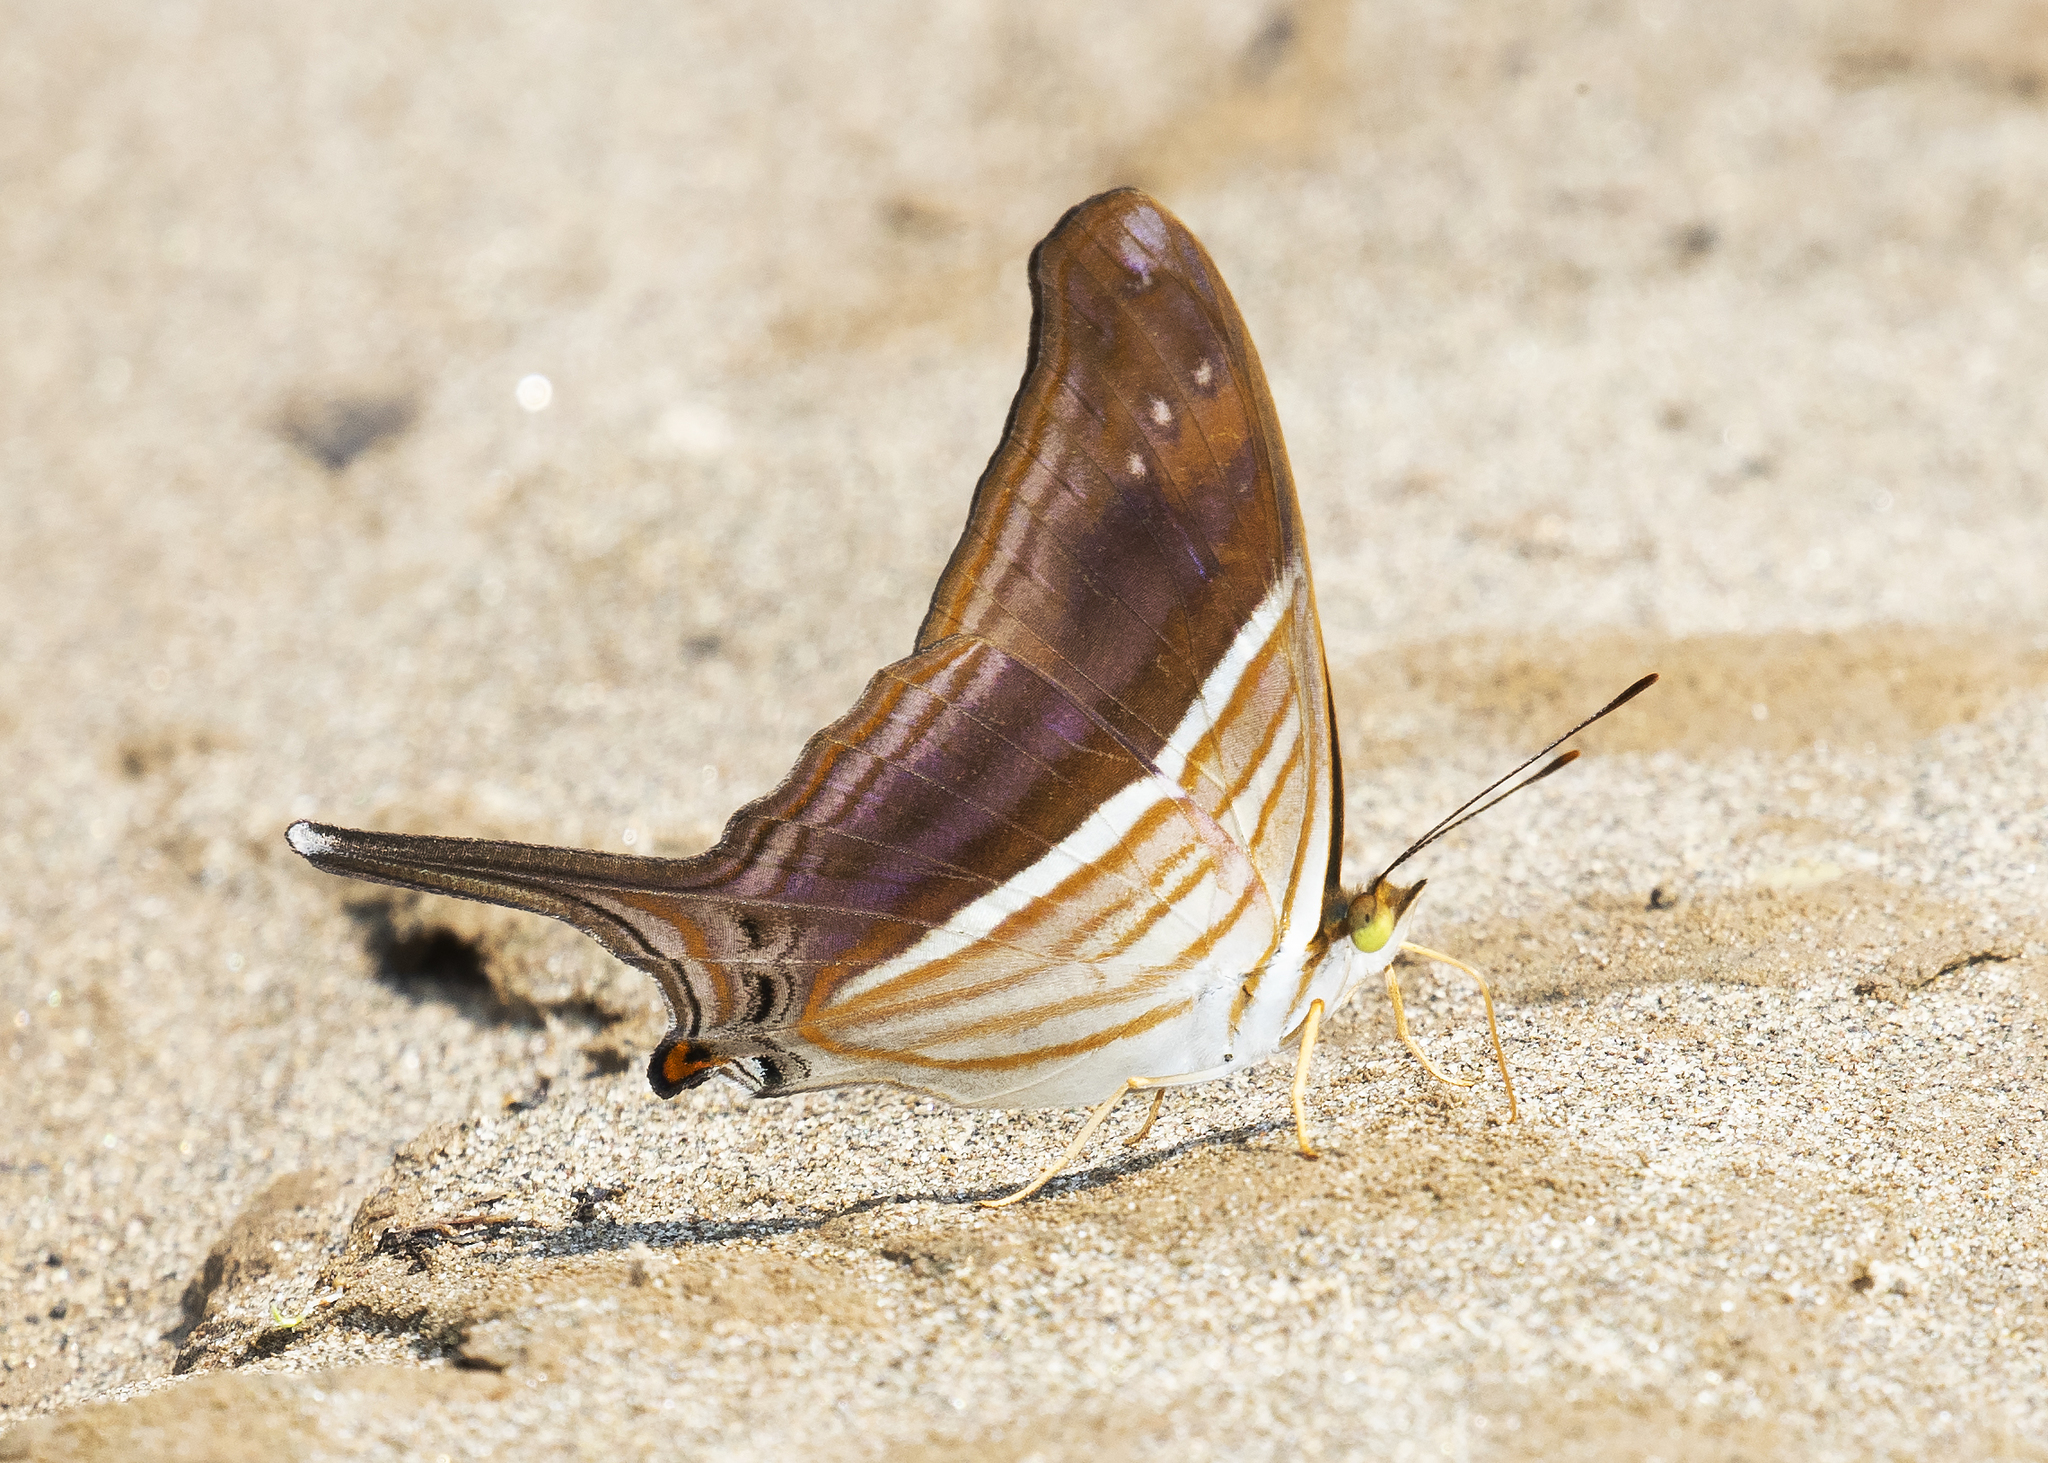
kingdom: Animalia
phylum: Arthropoda
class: Insecta
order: Lepidoptera
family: Nymphalidae
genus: Marpesia
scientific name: Marpesia chiron
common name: Many-banded daggerwing
